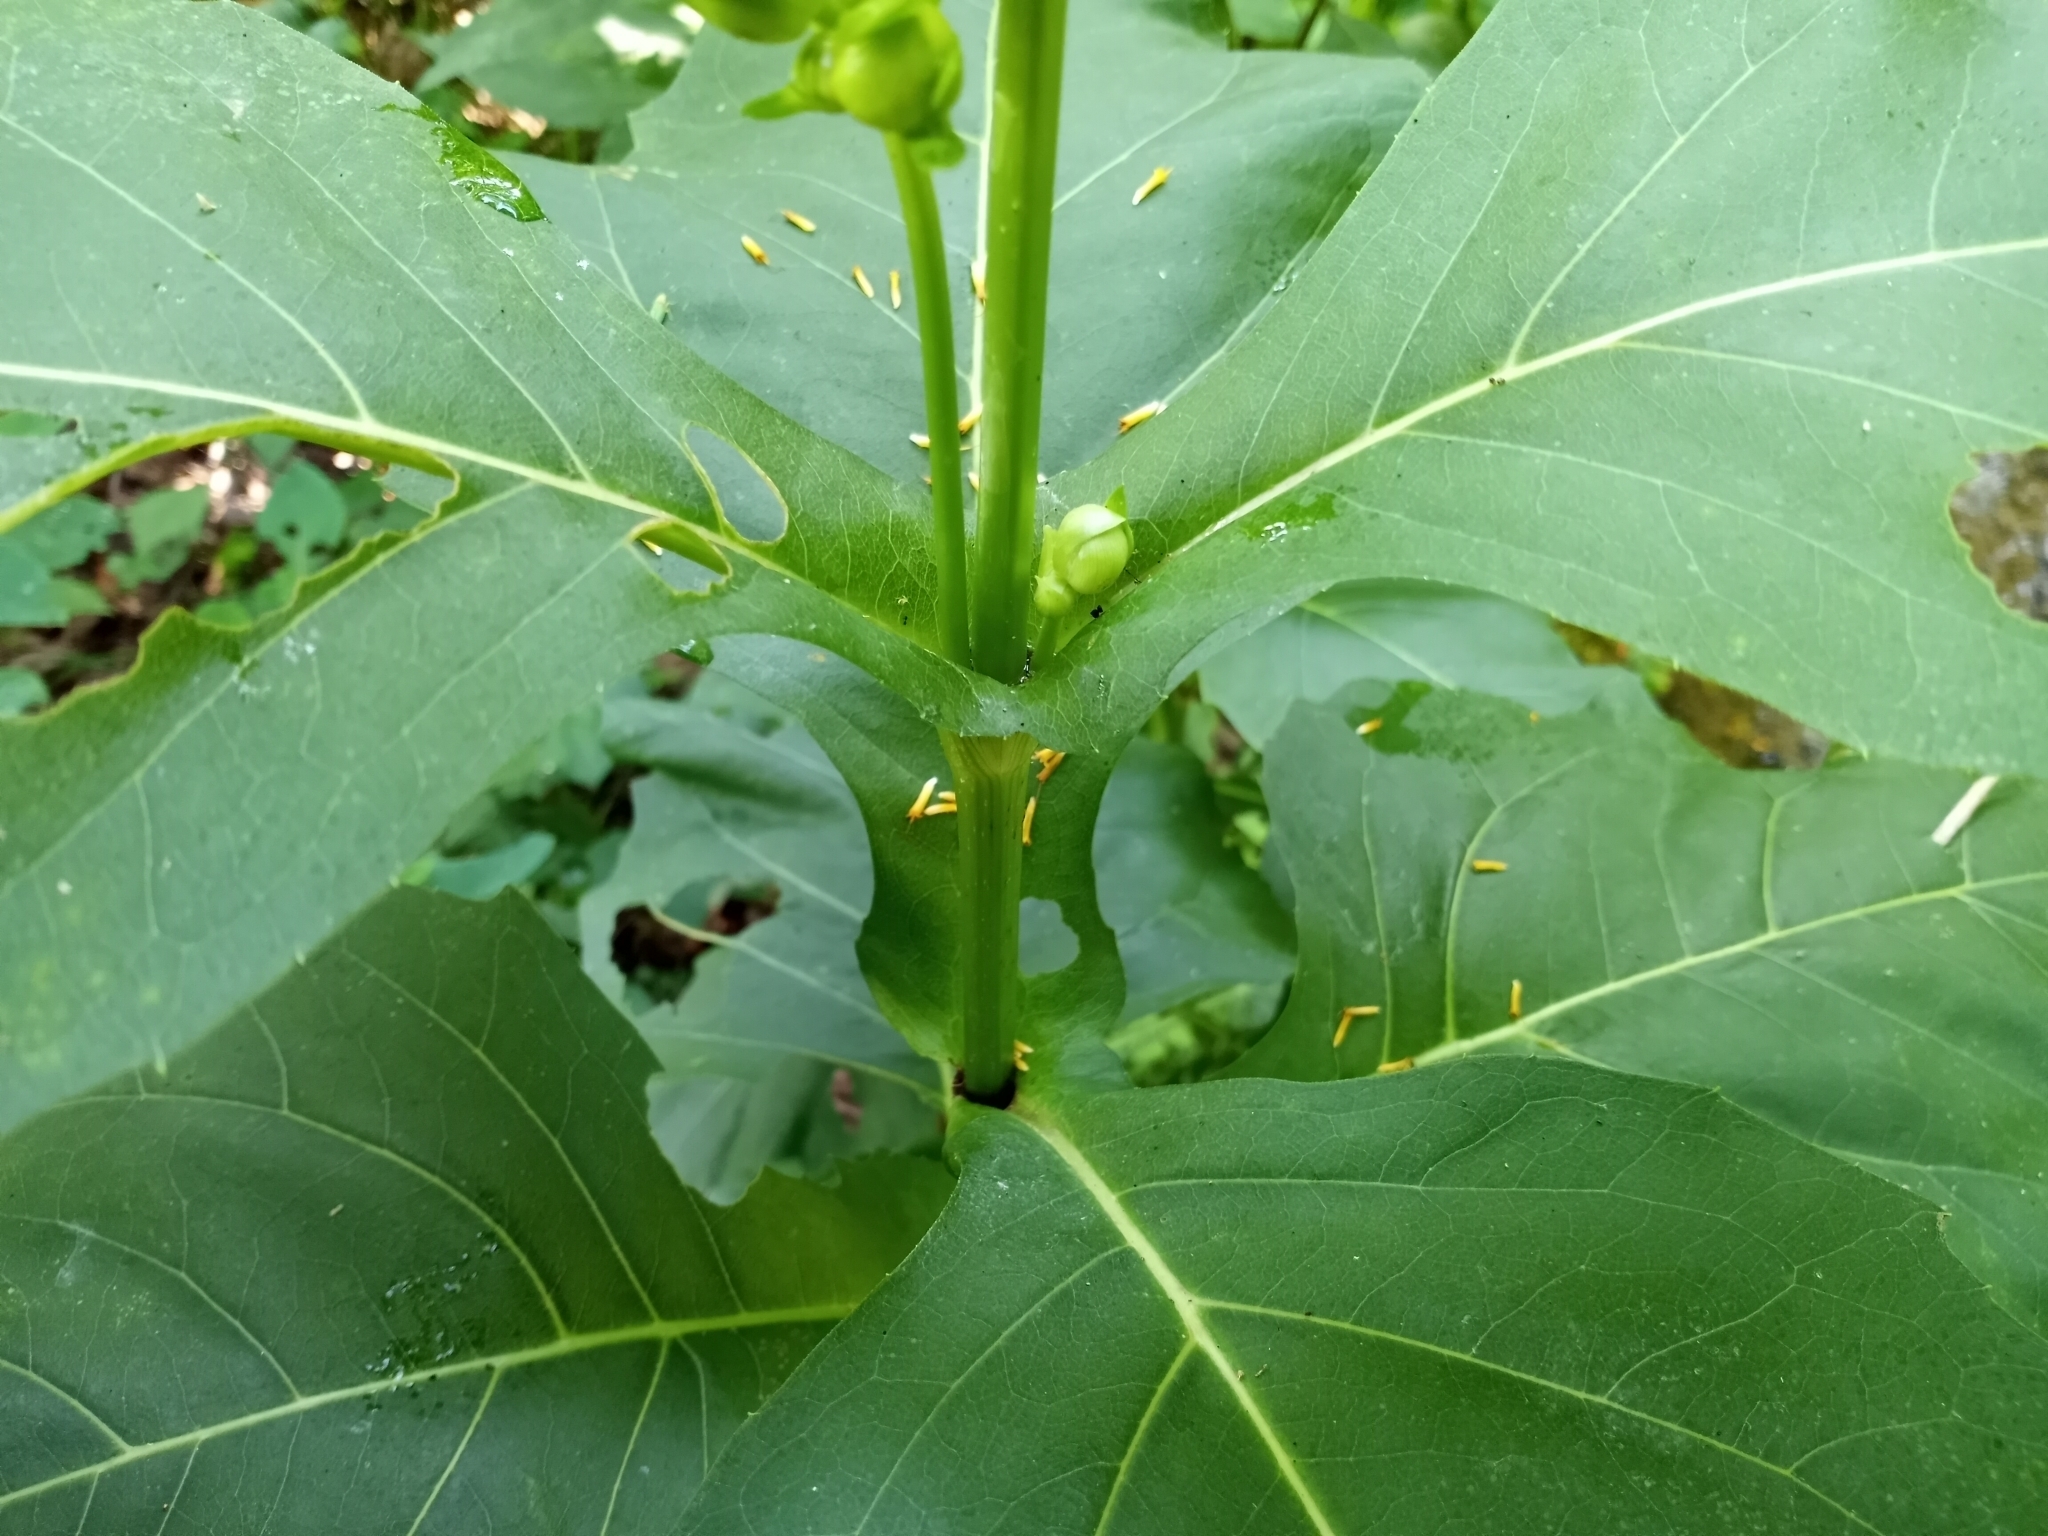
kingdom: Plantae
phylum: Tracheophyta
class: Magnoliopsida
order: Asterales
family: Asteraceae
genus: Silphium
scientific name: Silphium perfoliatum
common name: Cup-plant
